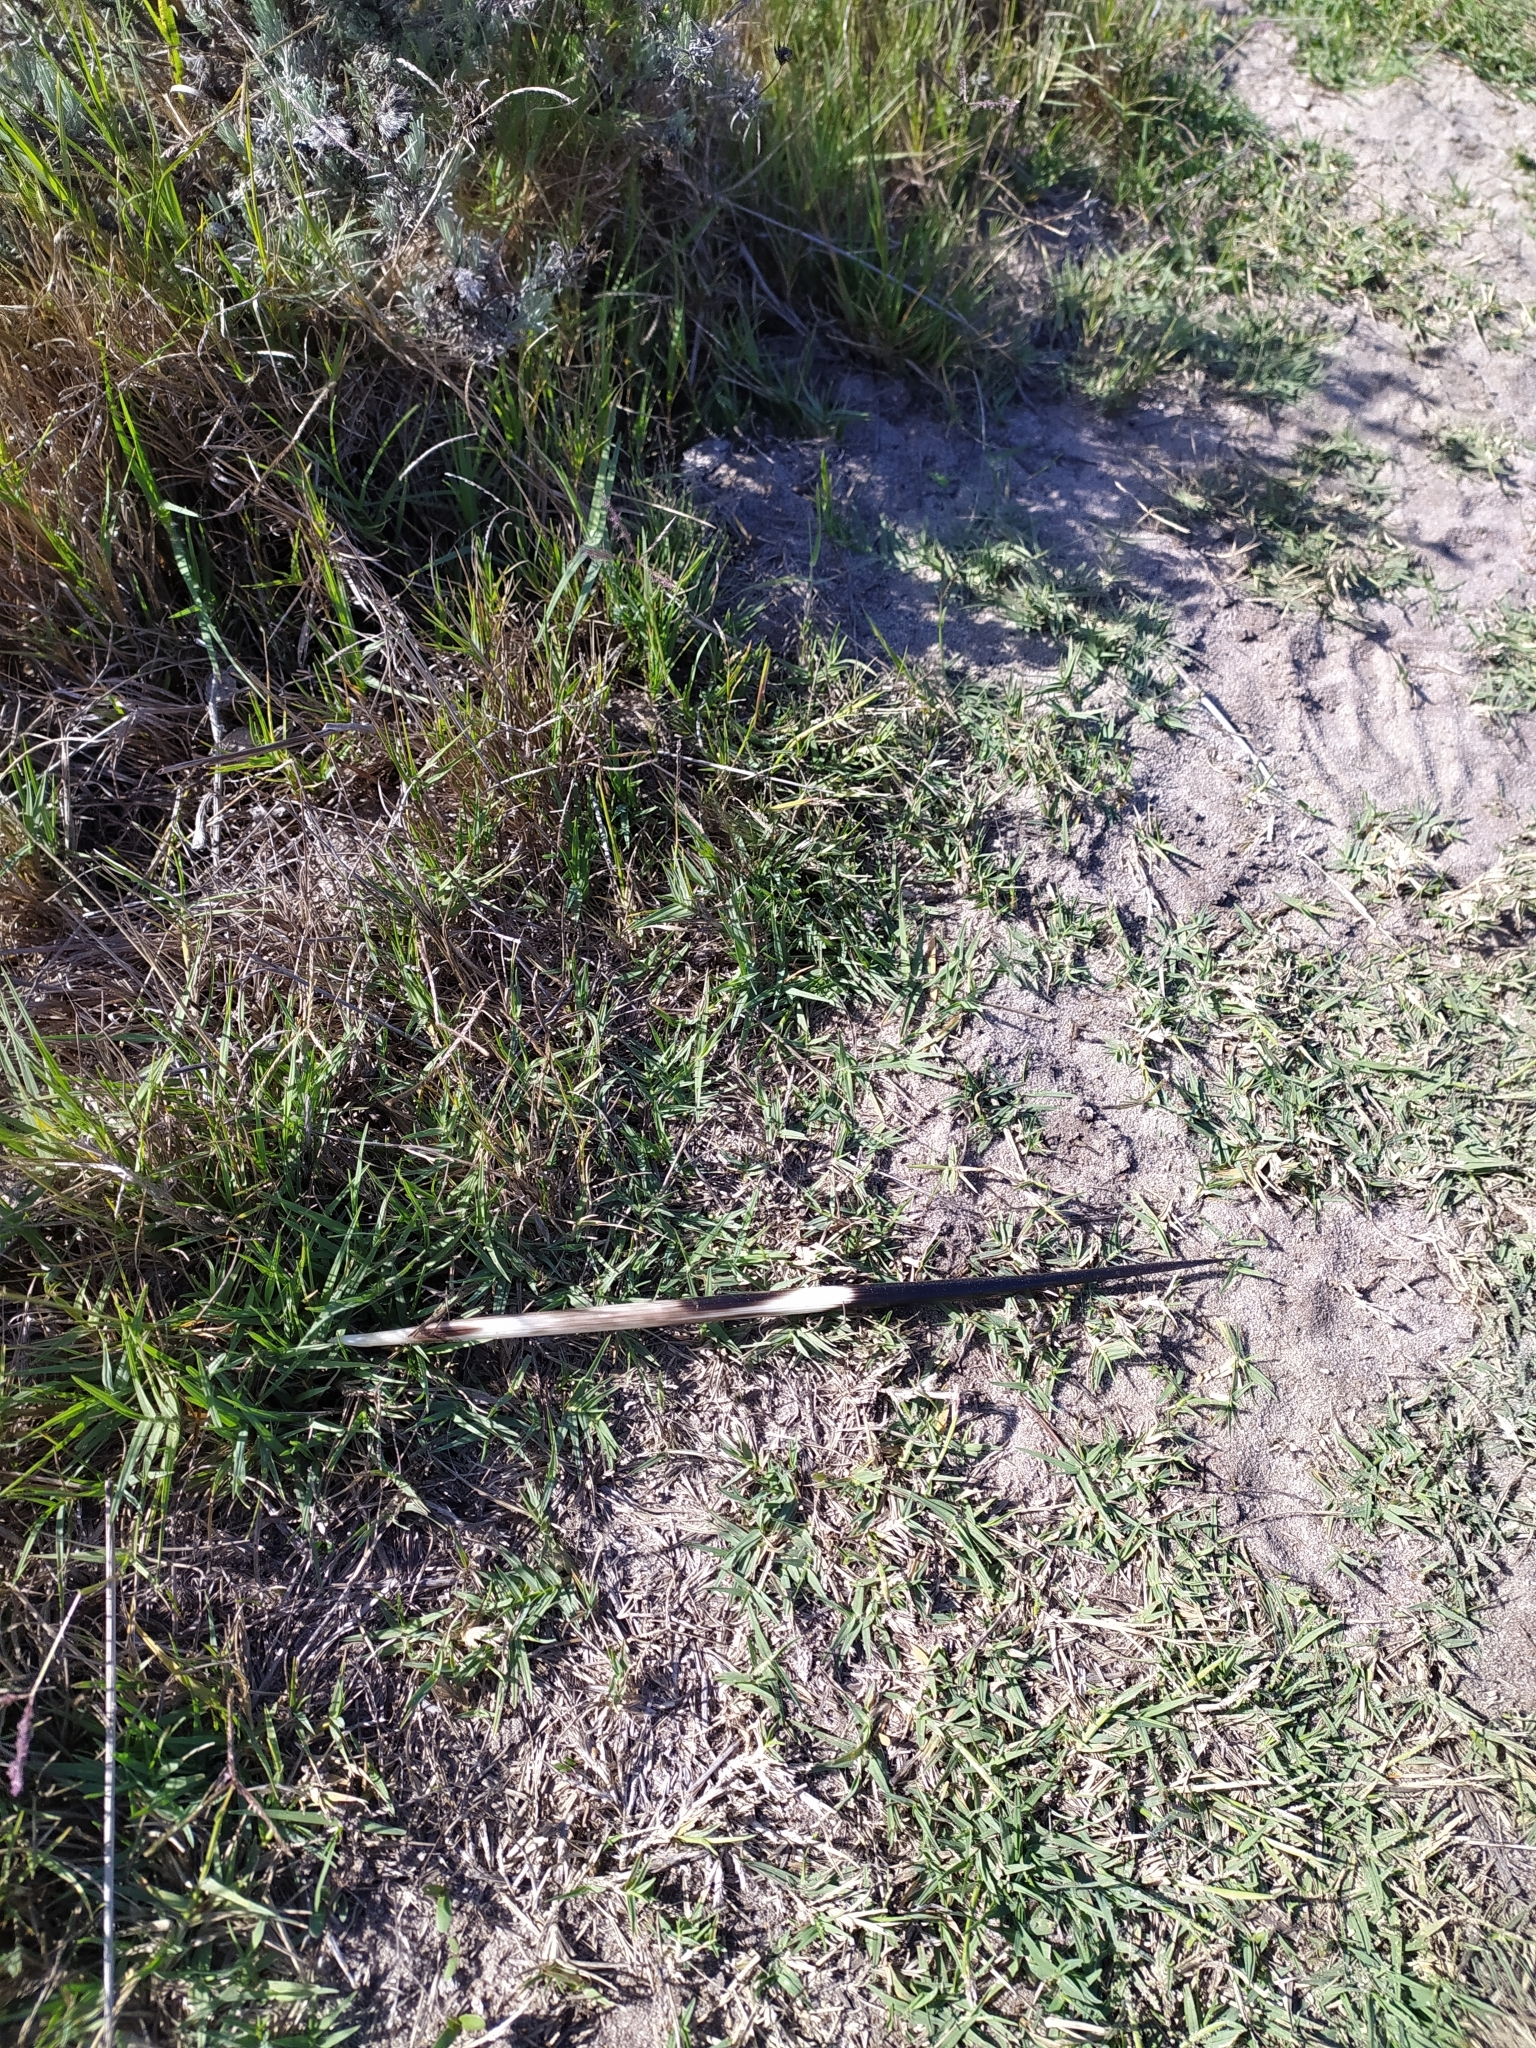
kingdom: Animalia
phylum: Chordata
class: Mammalia
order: Rodentia
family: Hystricidae
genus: Hystrix
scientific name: Hystrix africaeaustralis
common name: Cape porcupine
